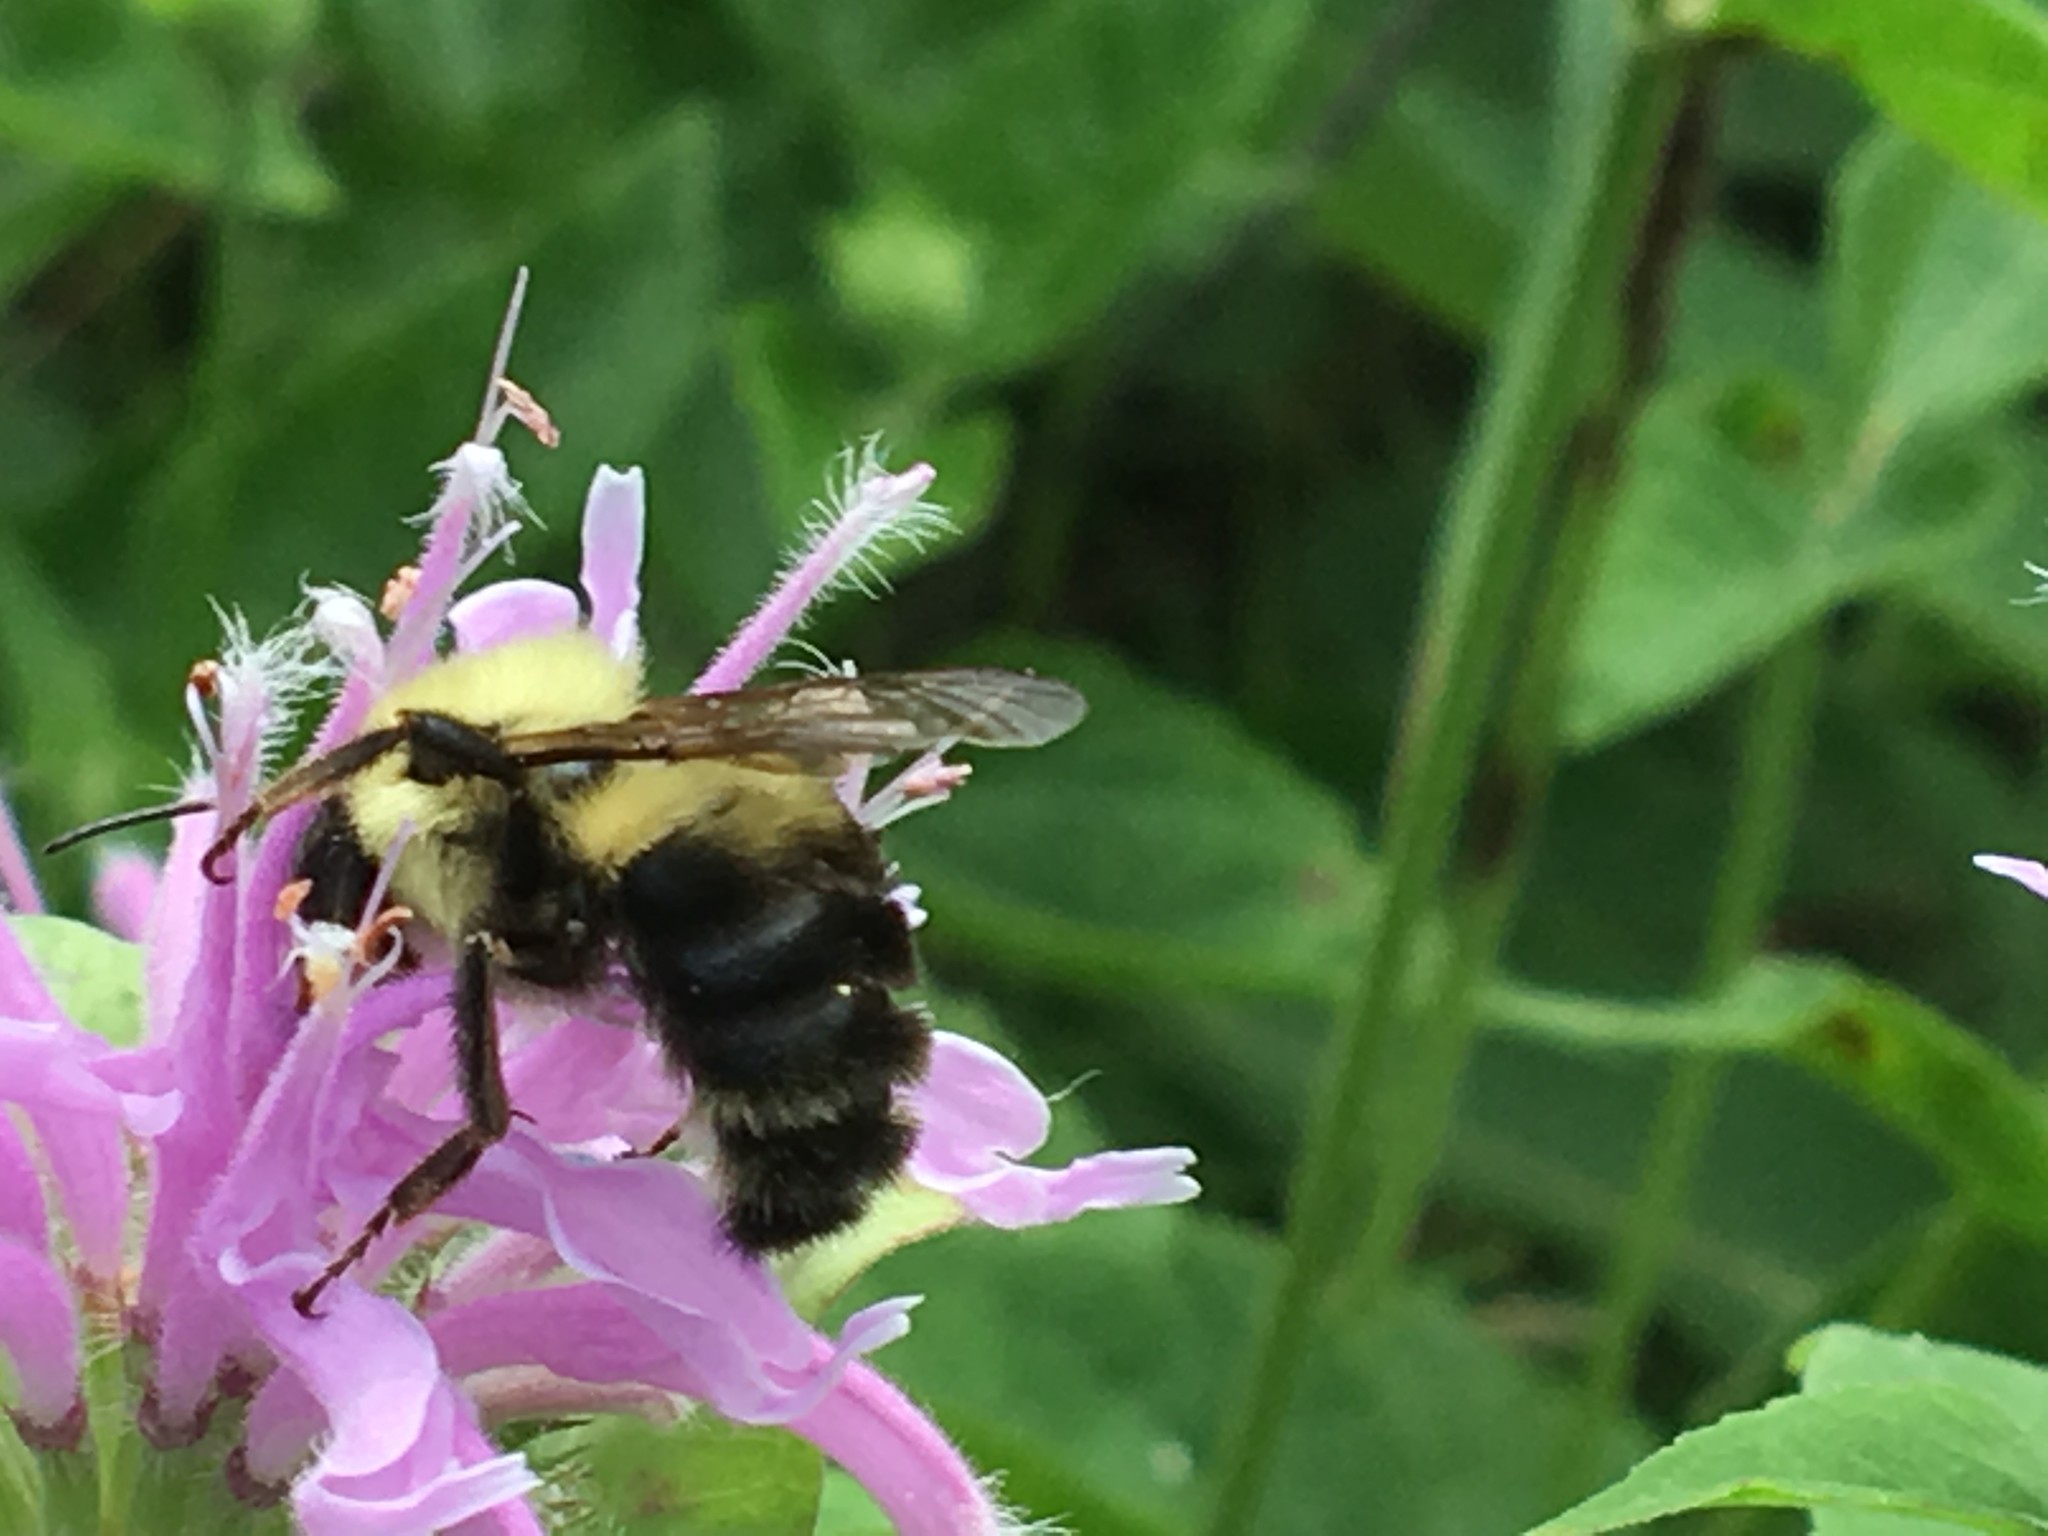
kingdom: Animalia
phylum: Arthropoda
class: Insecta
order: Hymenoptera
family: Apidae
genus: Bombus
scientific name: Bombus bimaculatus
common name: Two-spotted bumble bee
